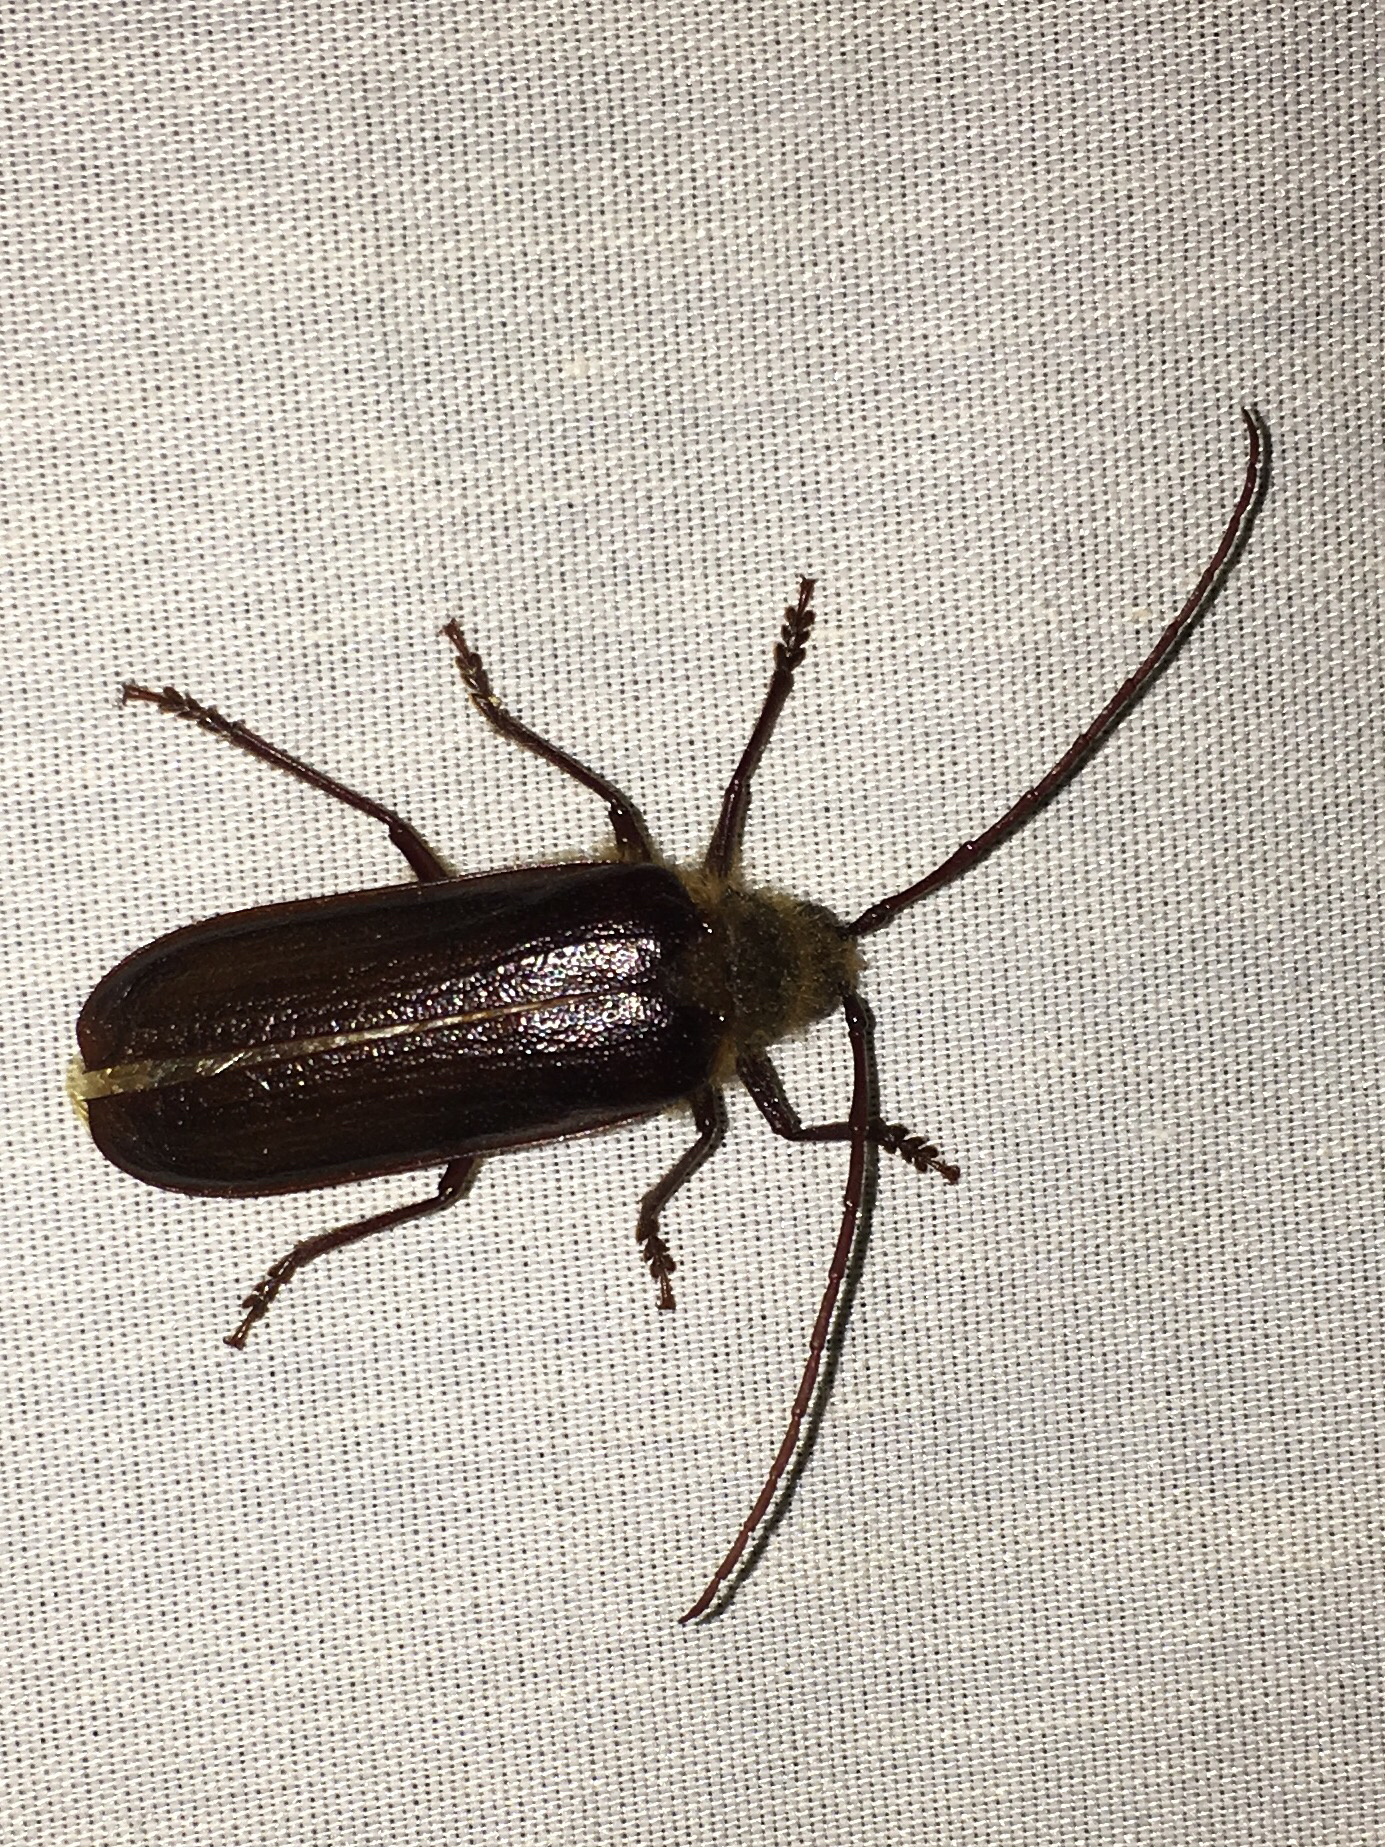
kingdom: Animalia
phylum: Arthropoda
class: Insecta
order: Coleoptera
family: Cerambycidae
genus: Tragosoma
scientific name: Tragosoma harrisii
